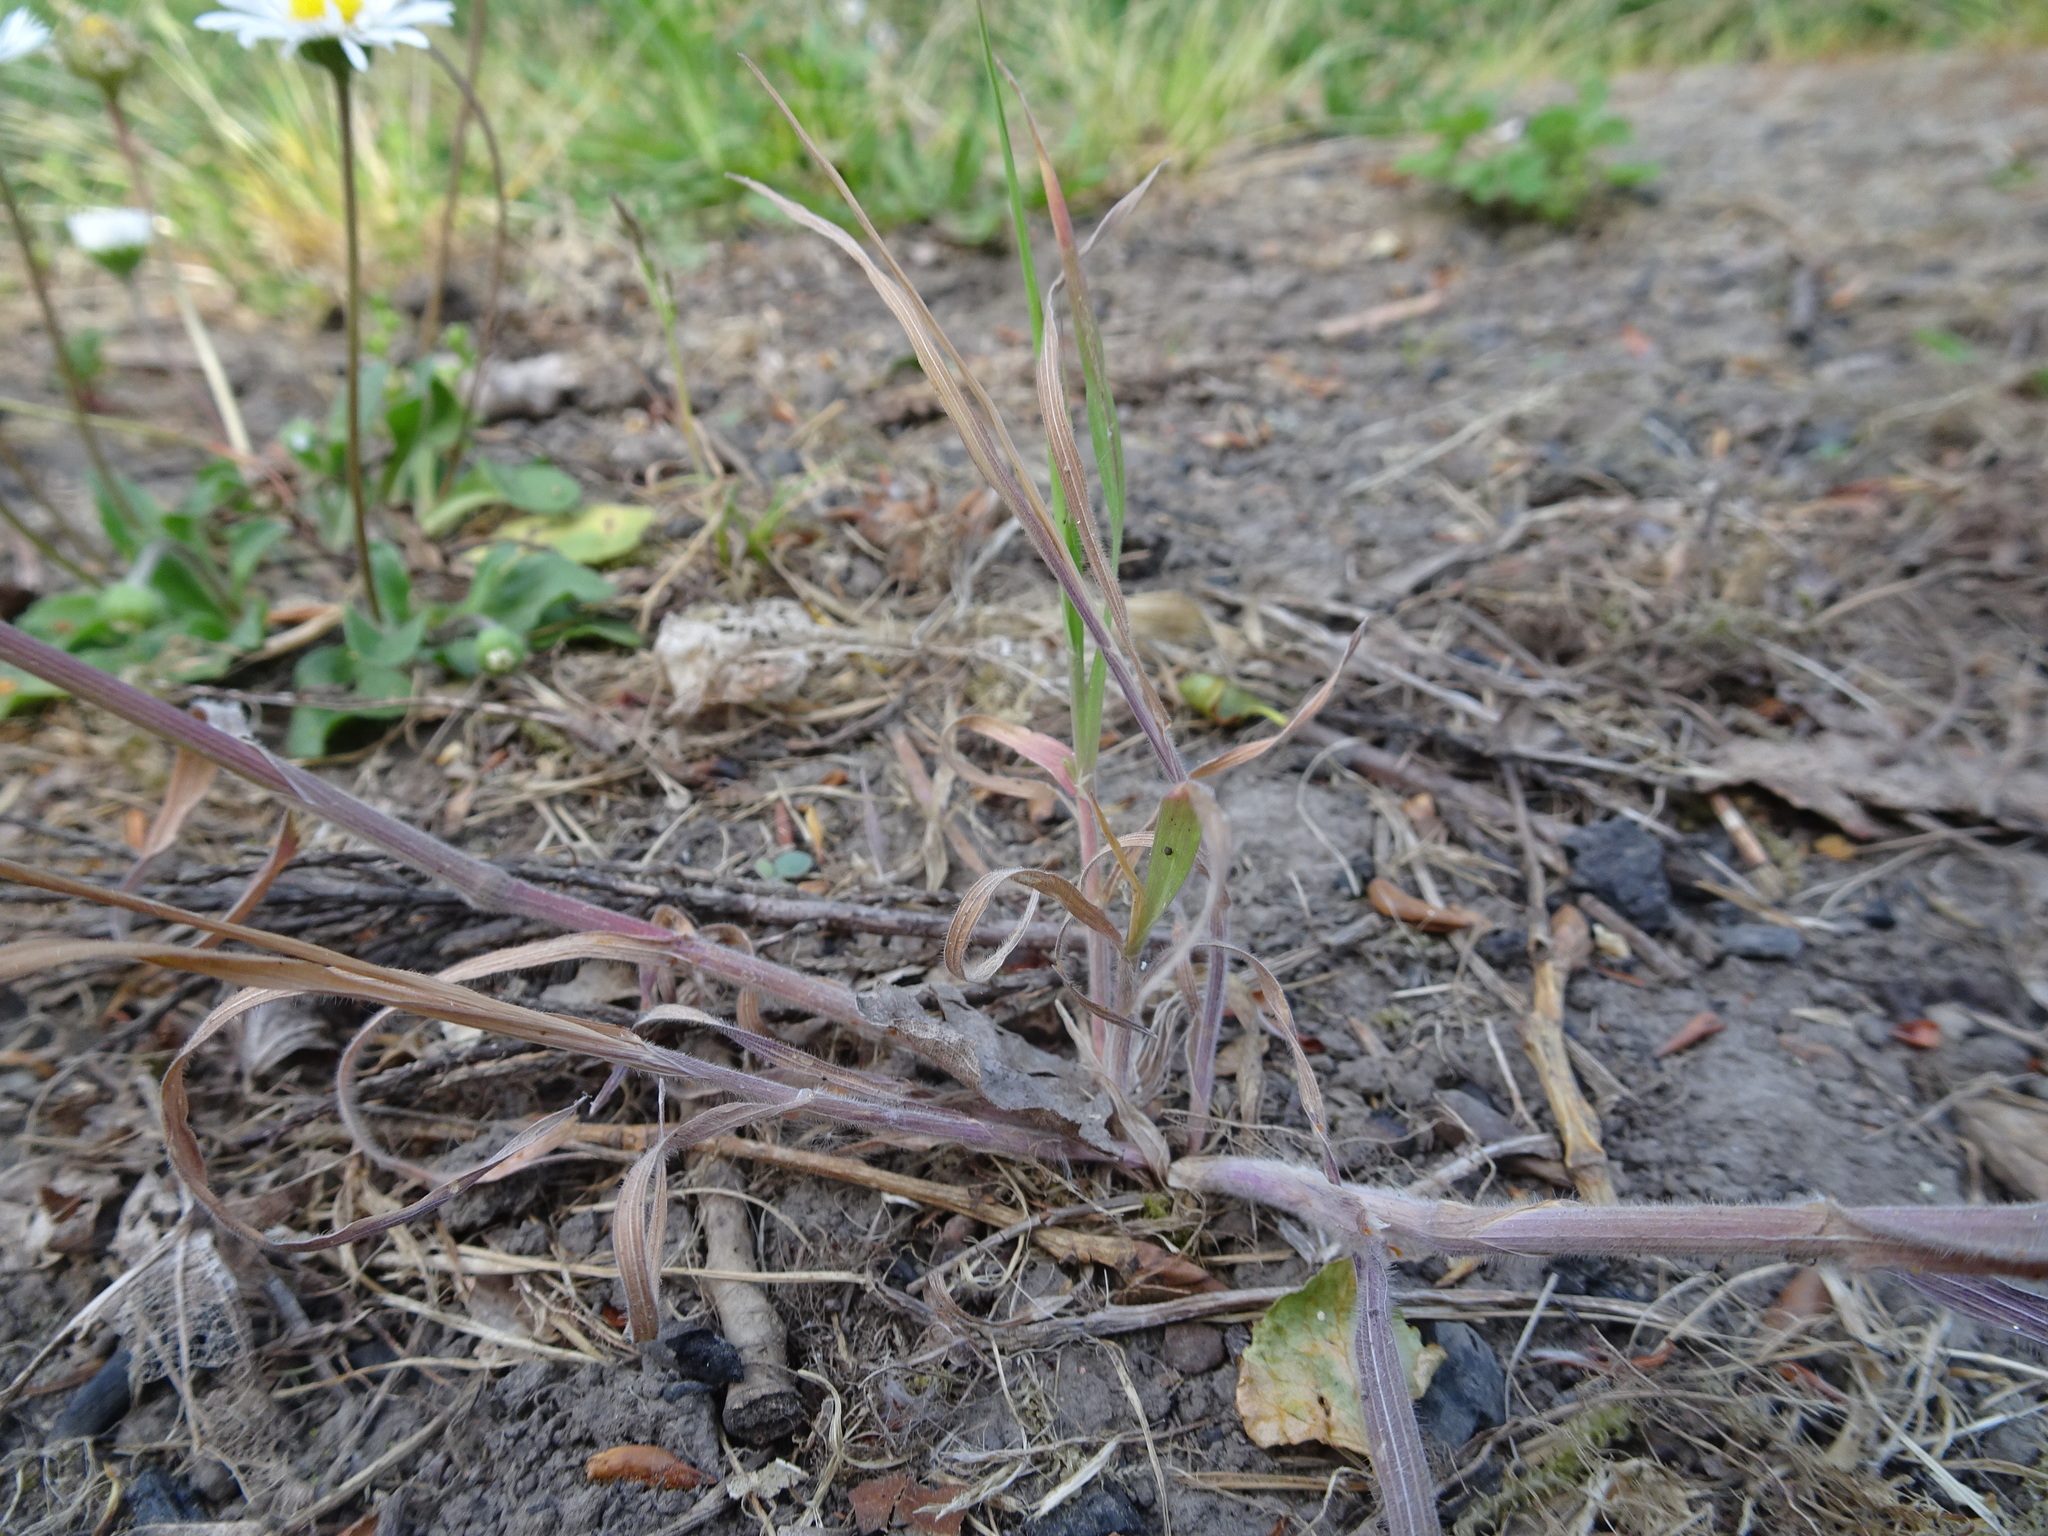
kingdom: Plantae
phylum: Tracheophyta
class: Liliopsida
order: Poales
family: Poaceae
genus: Bromus
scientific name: Bromus sterilis
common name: Poverty brome
